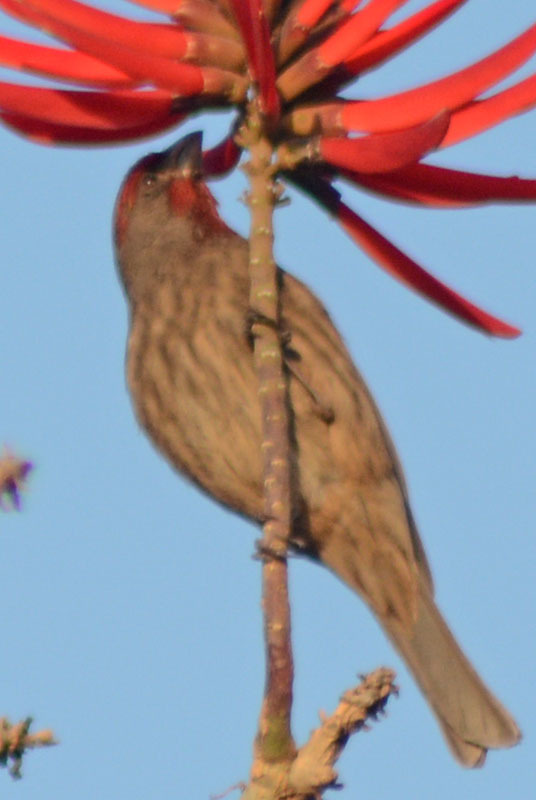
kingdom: Animalia
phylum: Chordata
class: Aves
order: Passeriformes
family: Fringillidae
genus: Haemorhous
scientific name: Haemorhous mexicanus
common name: House finch
